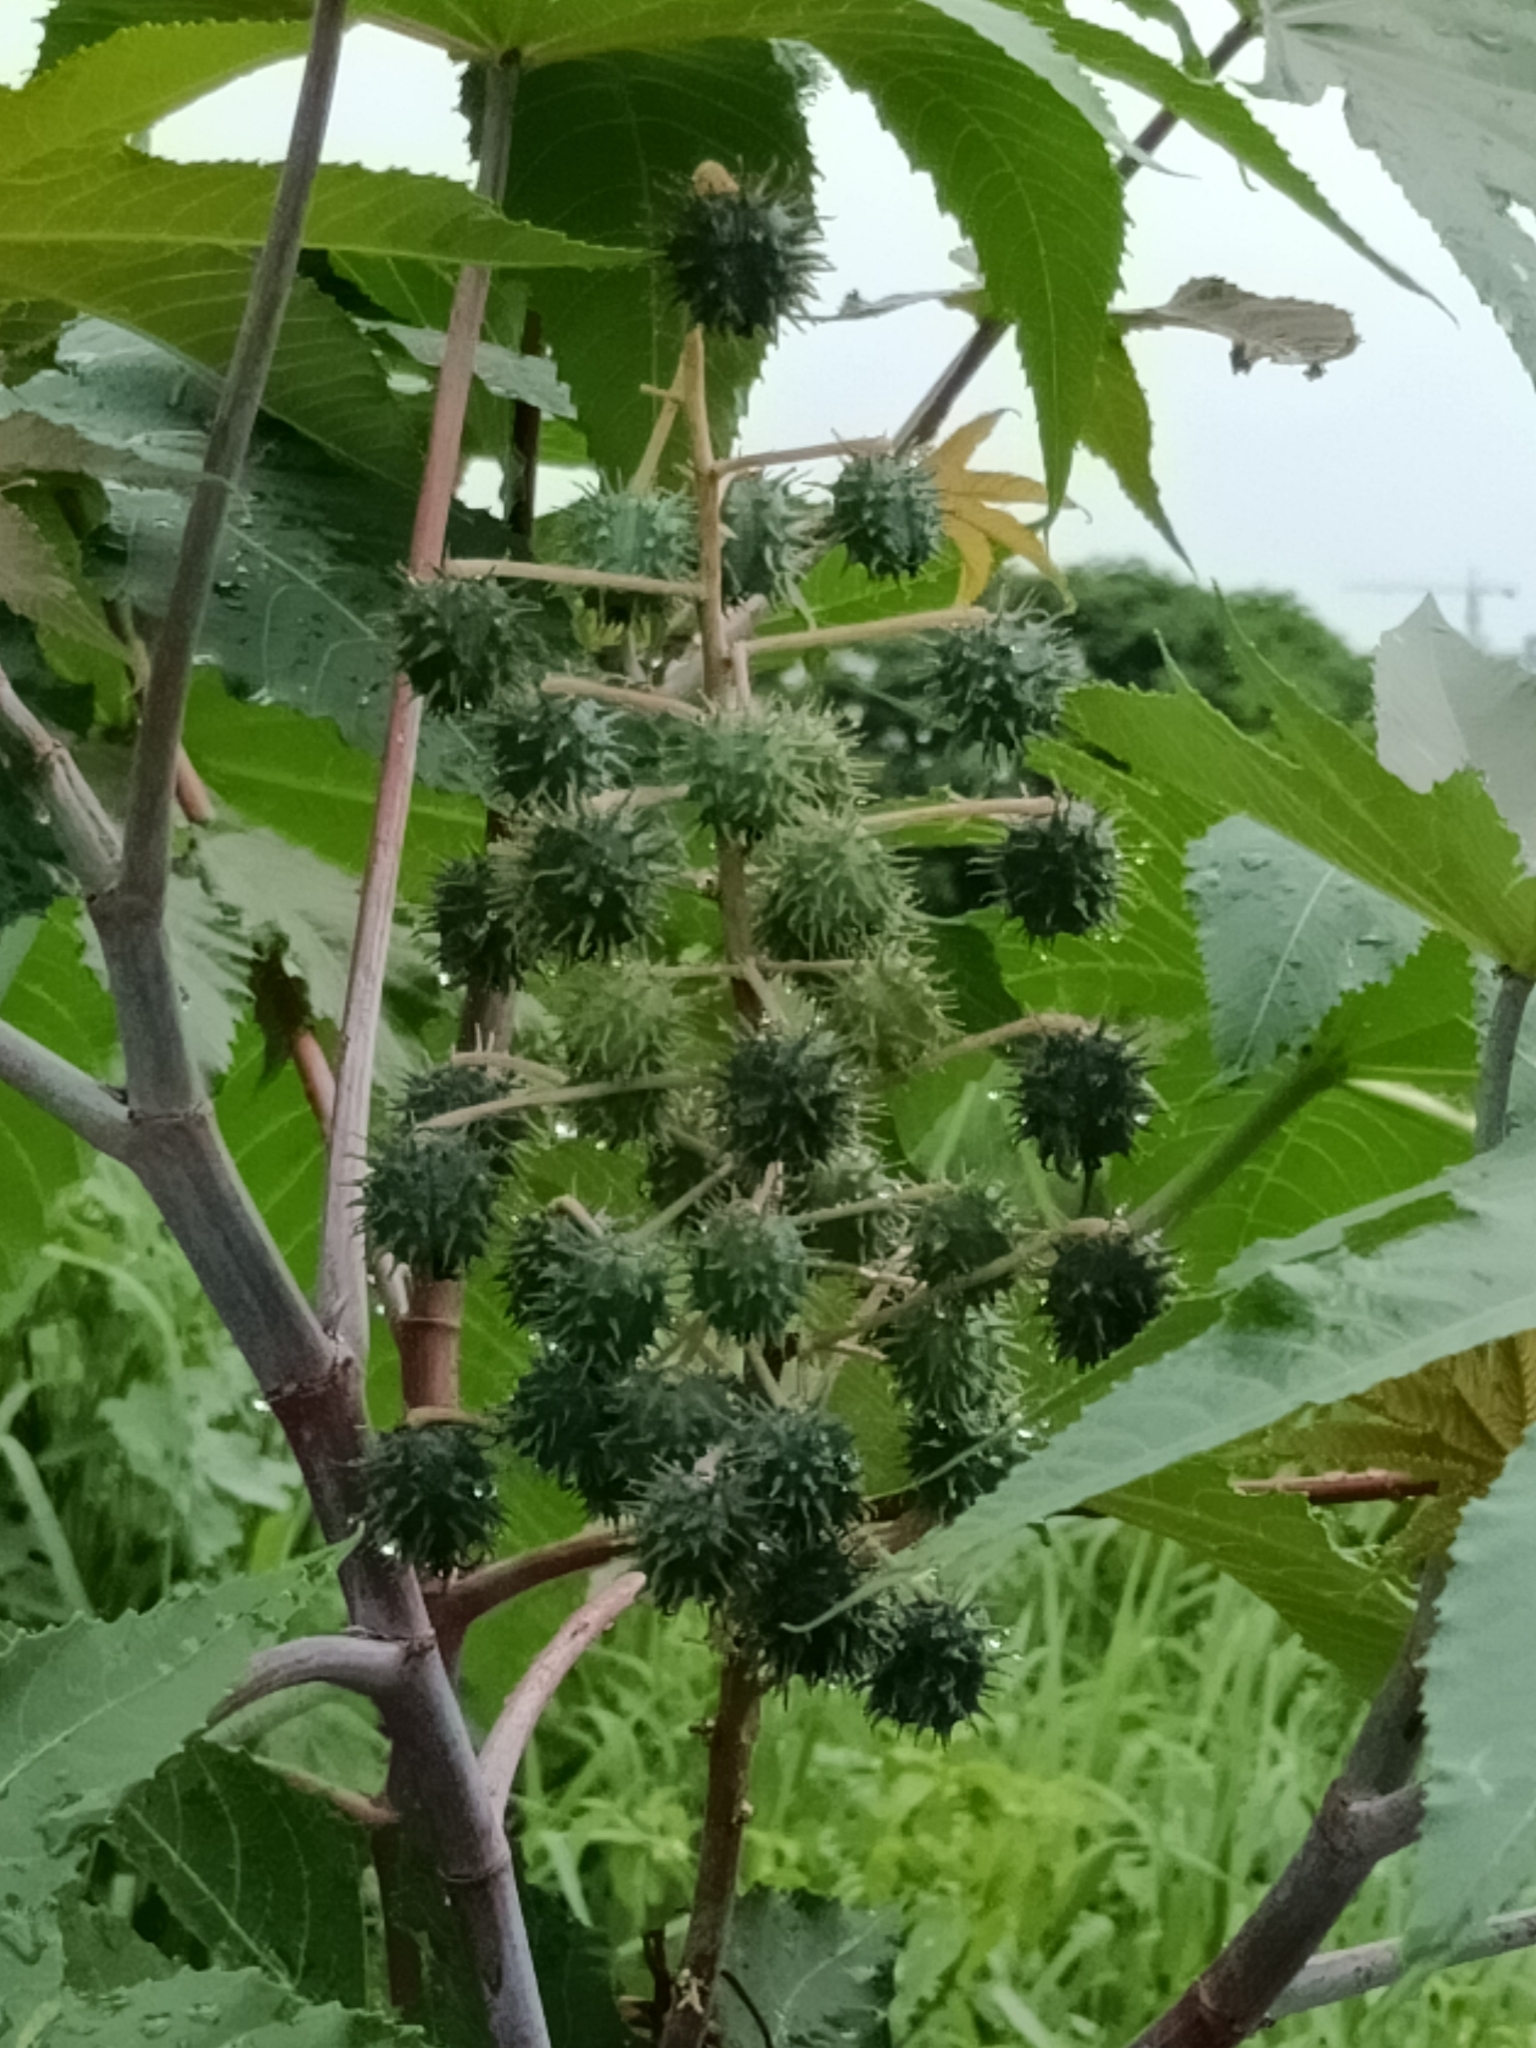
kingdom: Plantae
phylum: Tracheophyta
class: Magnoliopsida
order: Malpighiales
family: Euphorbiaceae
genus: Ricinus
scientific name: Ricinus communis
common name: Castor-oil-plant
